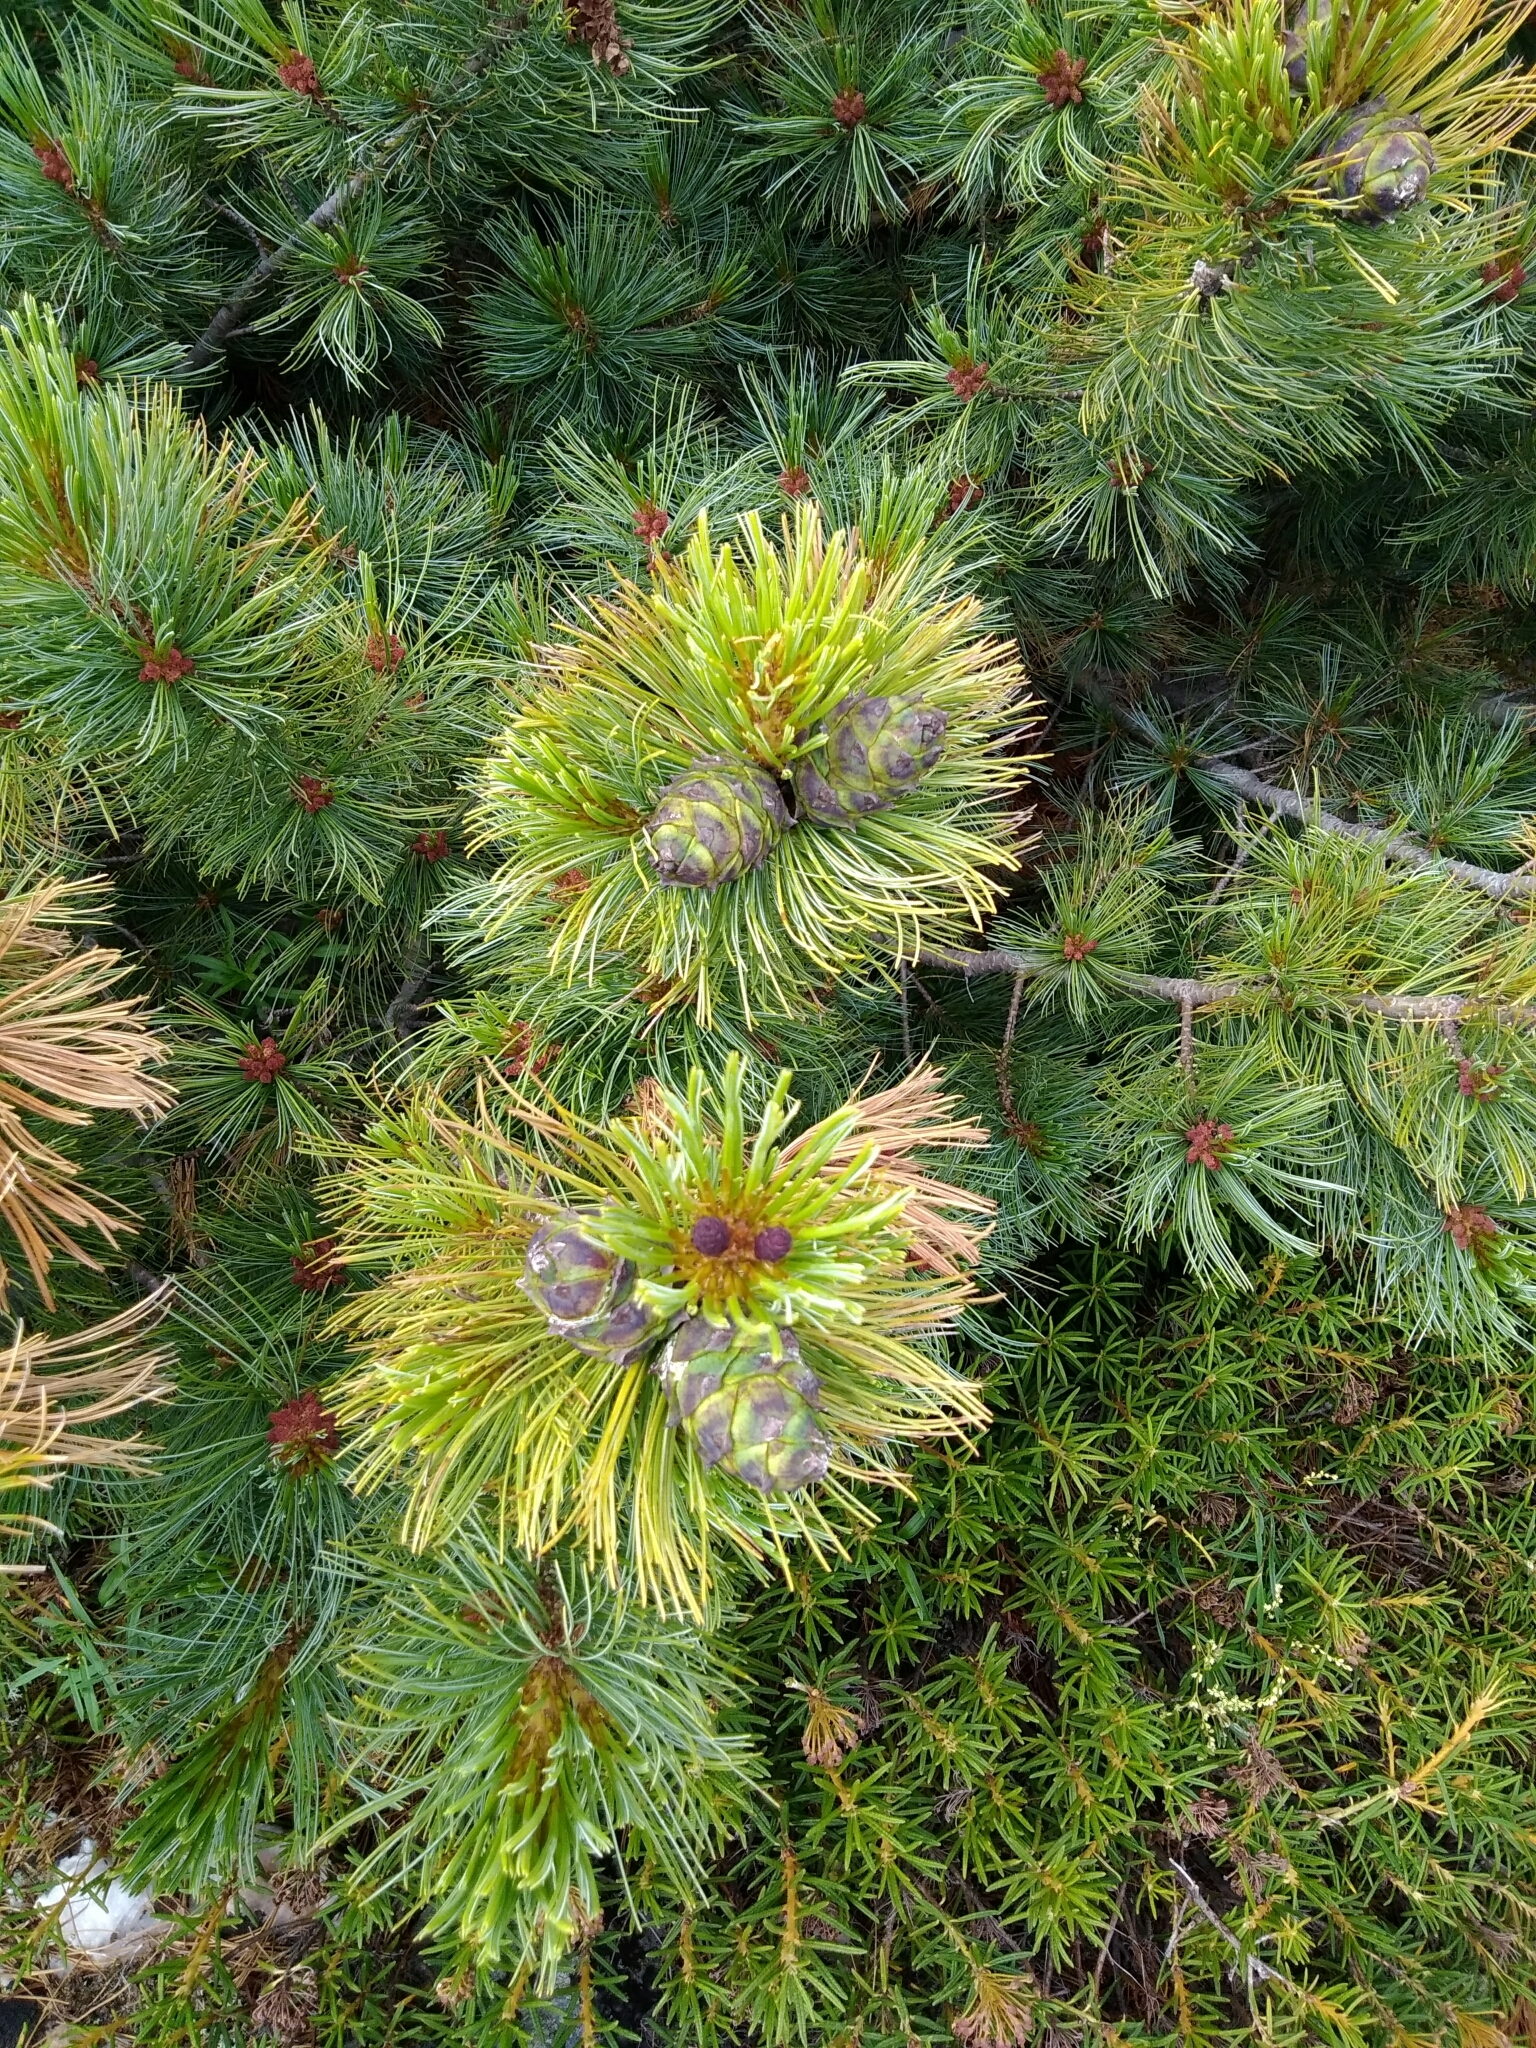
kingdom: Plantae
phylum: Tracheophyta
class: Pinopsida
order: Pinales
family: Pinaceae
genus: Pinus
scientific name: Pinus pumila
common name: Dwarf siberian pine
